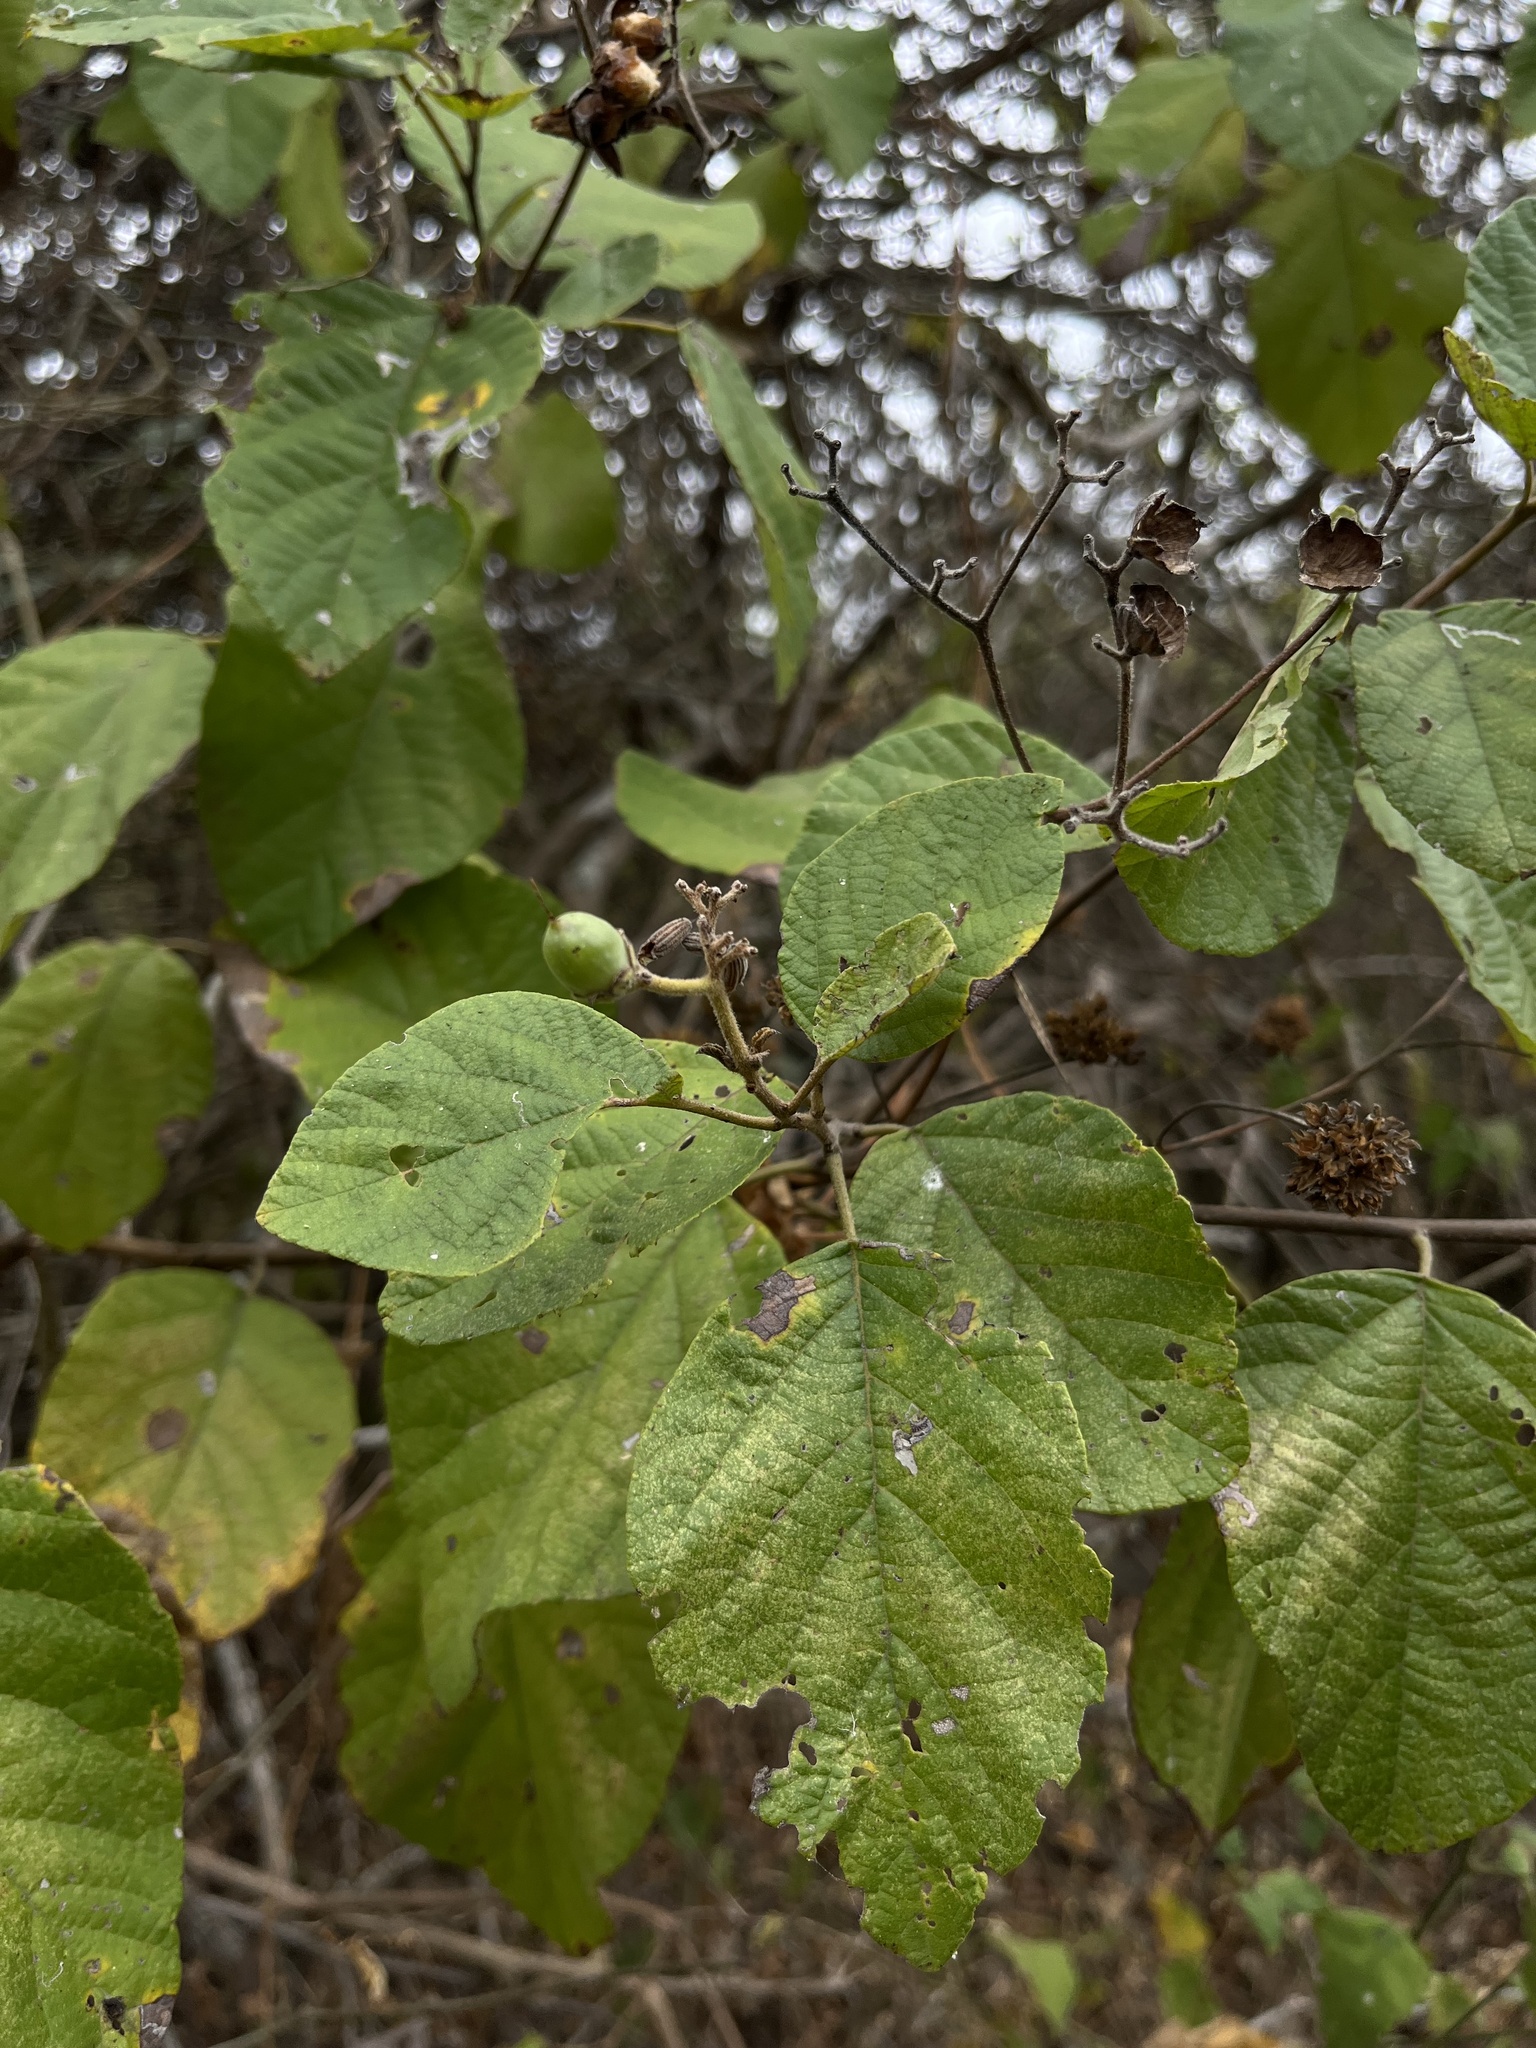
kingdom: Plantae
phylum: Tracheophyta
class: Magnoliopsida
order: Boraginales
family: Cordiaceae
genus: Cordia
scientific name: Cordia lutea
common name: Yellow geiger
